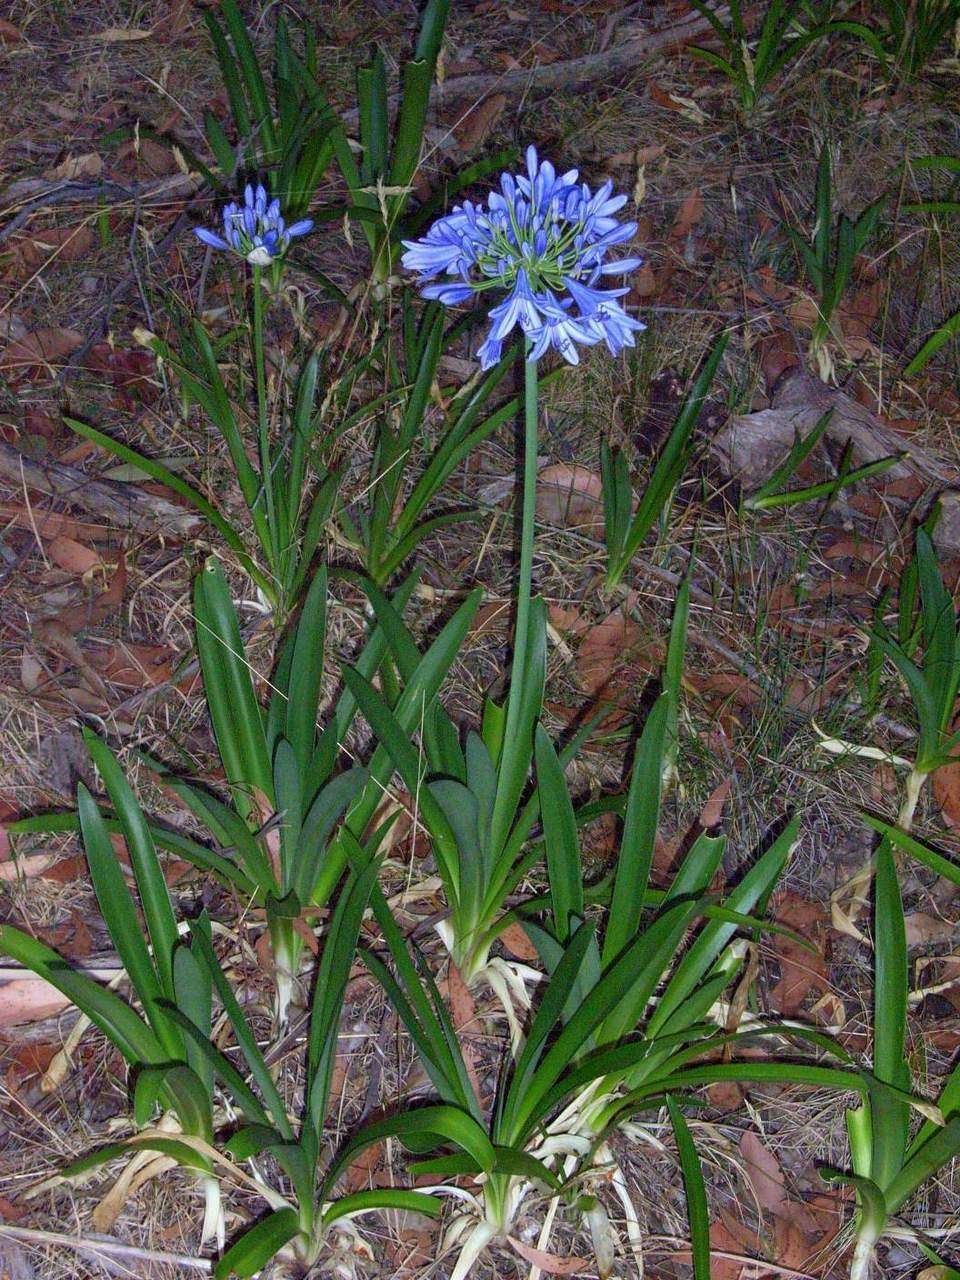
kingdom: Plantae
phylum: Tracheophyta
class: Liliopsida
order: Asparagales
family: Amaryllidaceae
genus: Agapanthus
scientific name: Agapanthus praecox
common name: African-lily
